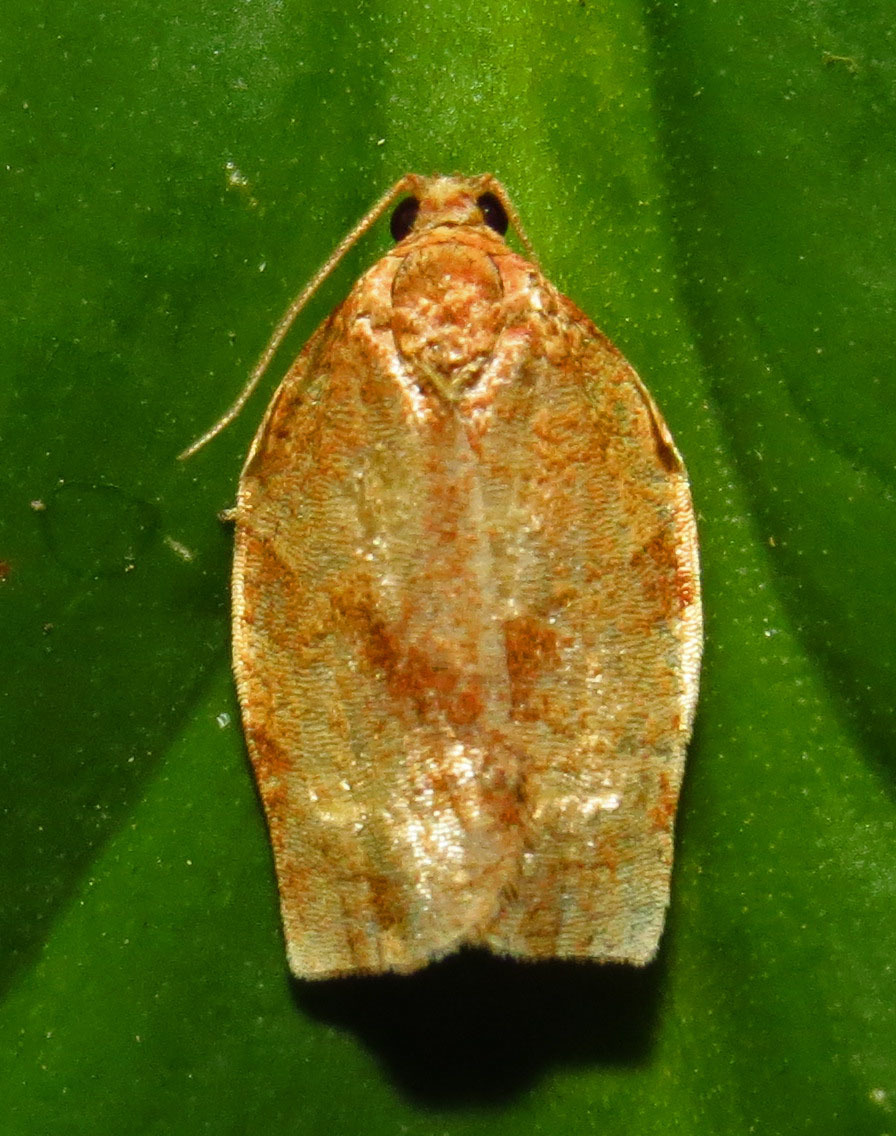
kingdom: Animalia
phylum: Arthropoda
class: Insecta
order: Lepidoptera
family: Tortricidae
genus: Choristoneura
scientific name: Choristoneura rosaceana
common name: Oblique-banded leafroller moth
